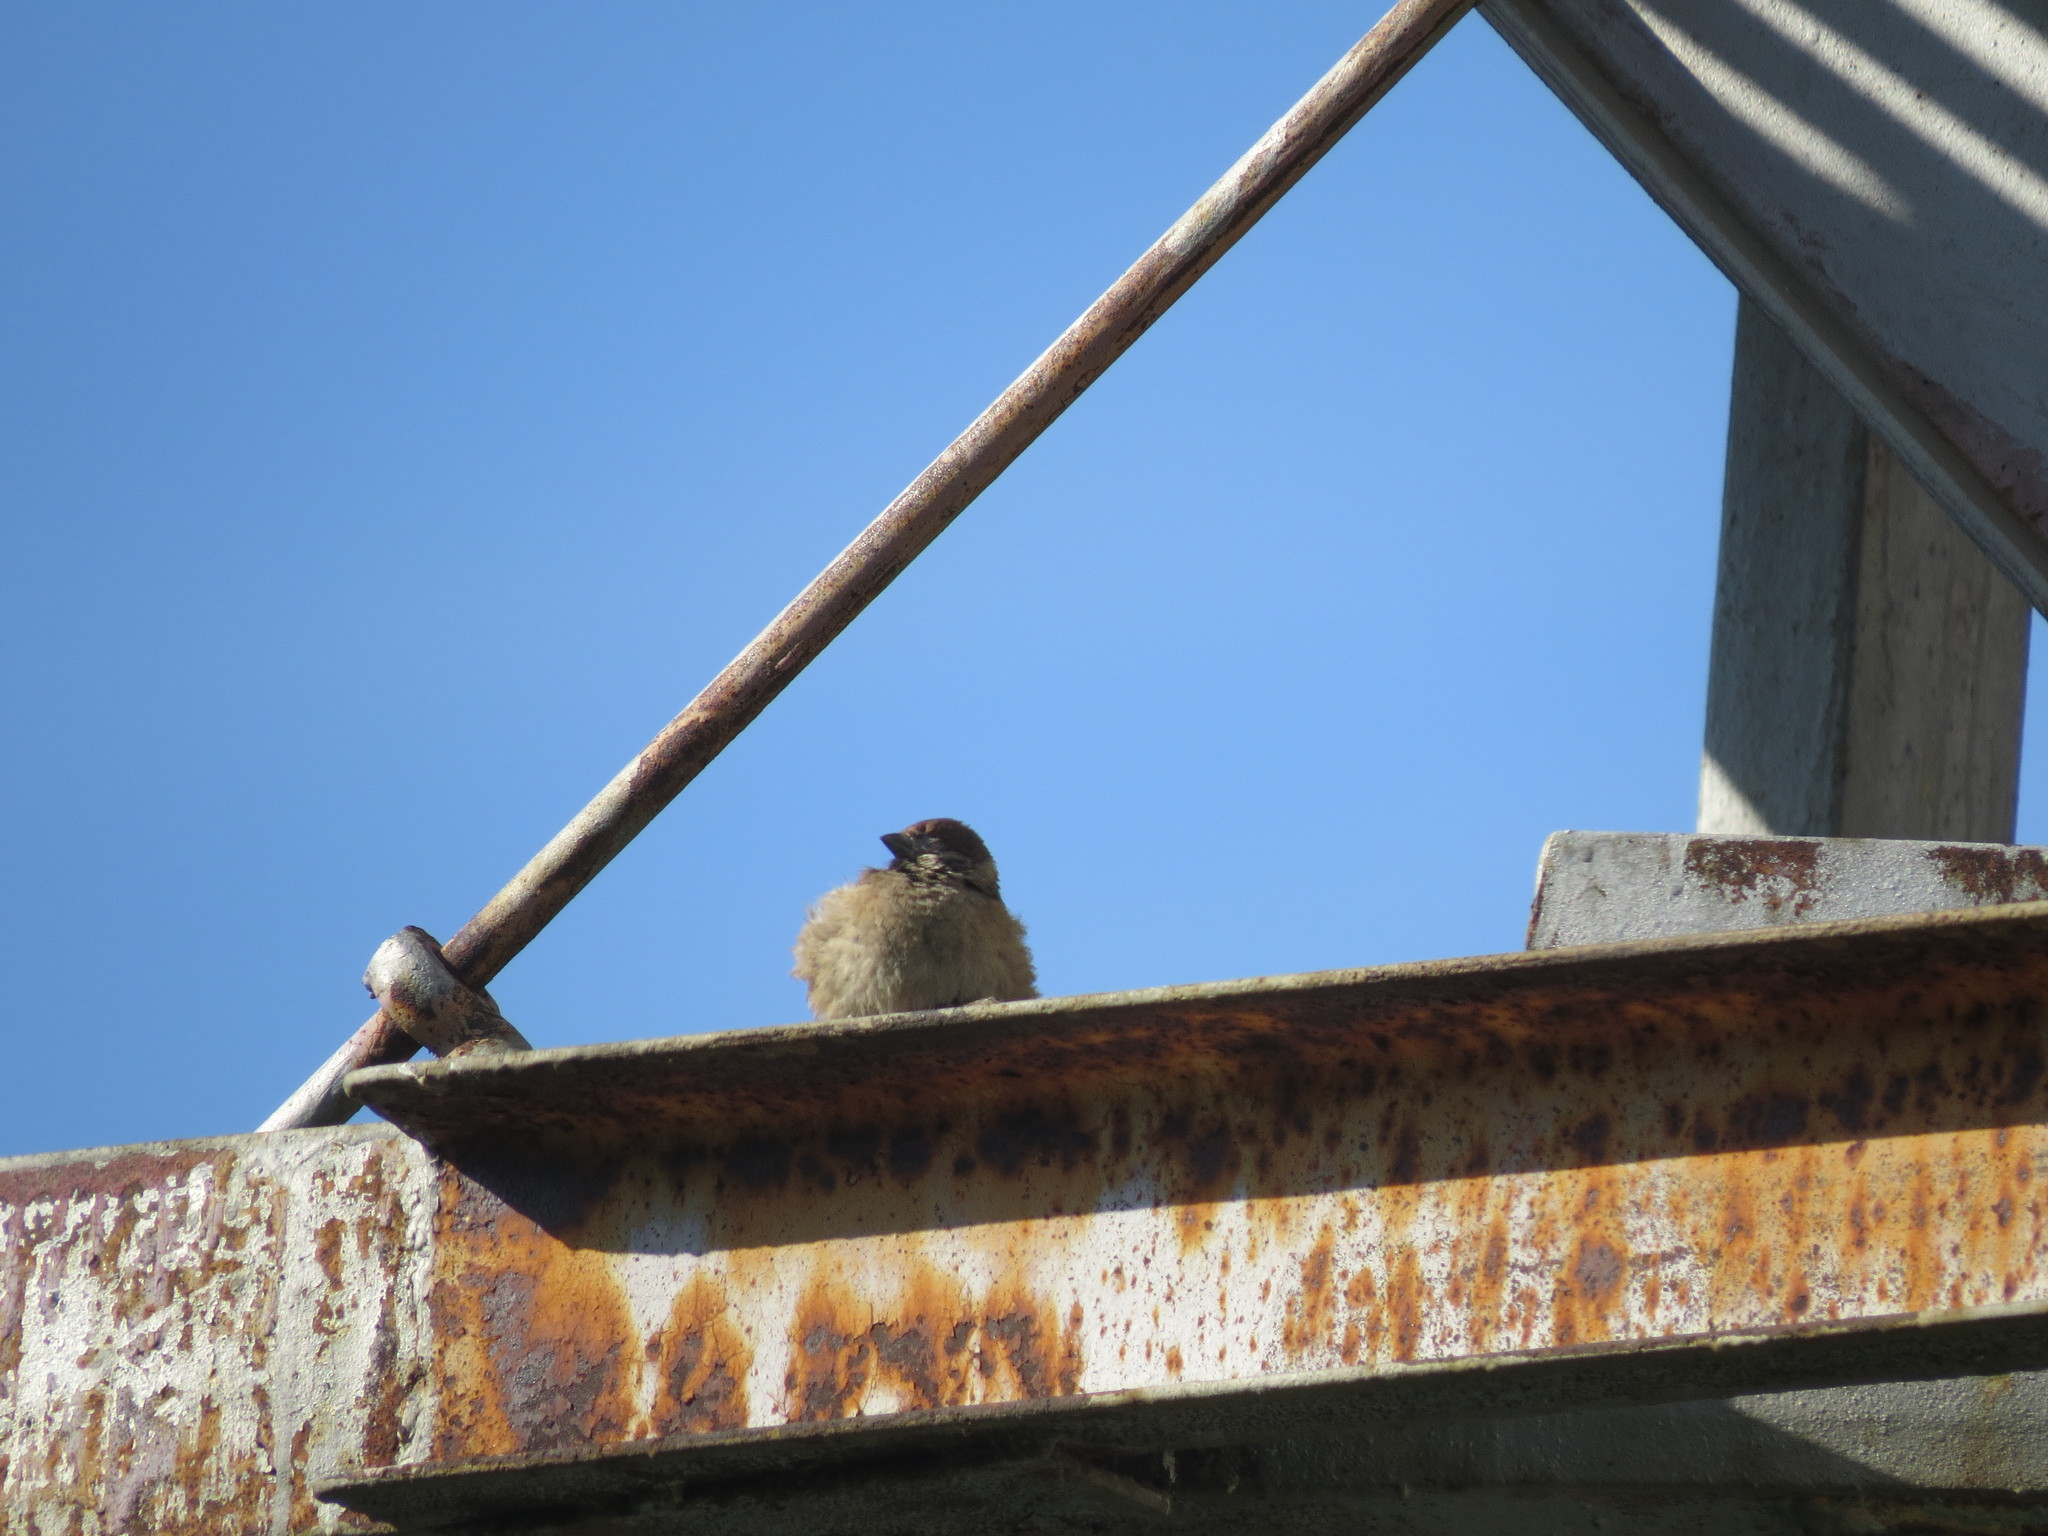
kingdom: Animalia
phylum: Chordata
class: Aves
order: Passeriformes
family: Passeridae
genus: Passer
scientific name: Passer domesticus
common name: House sparrow
